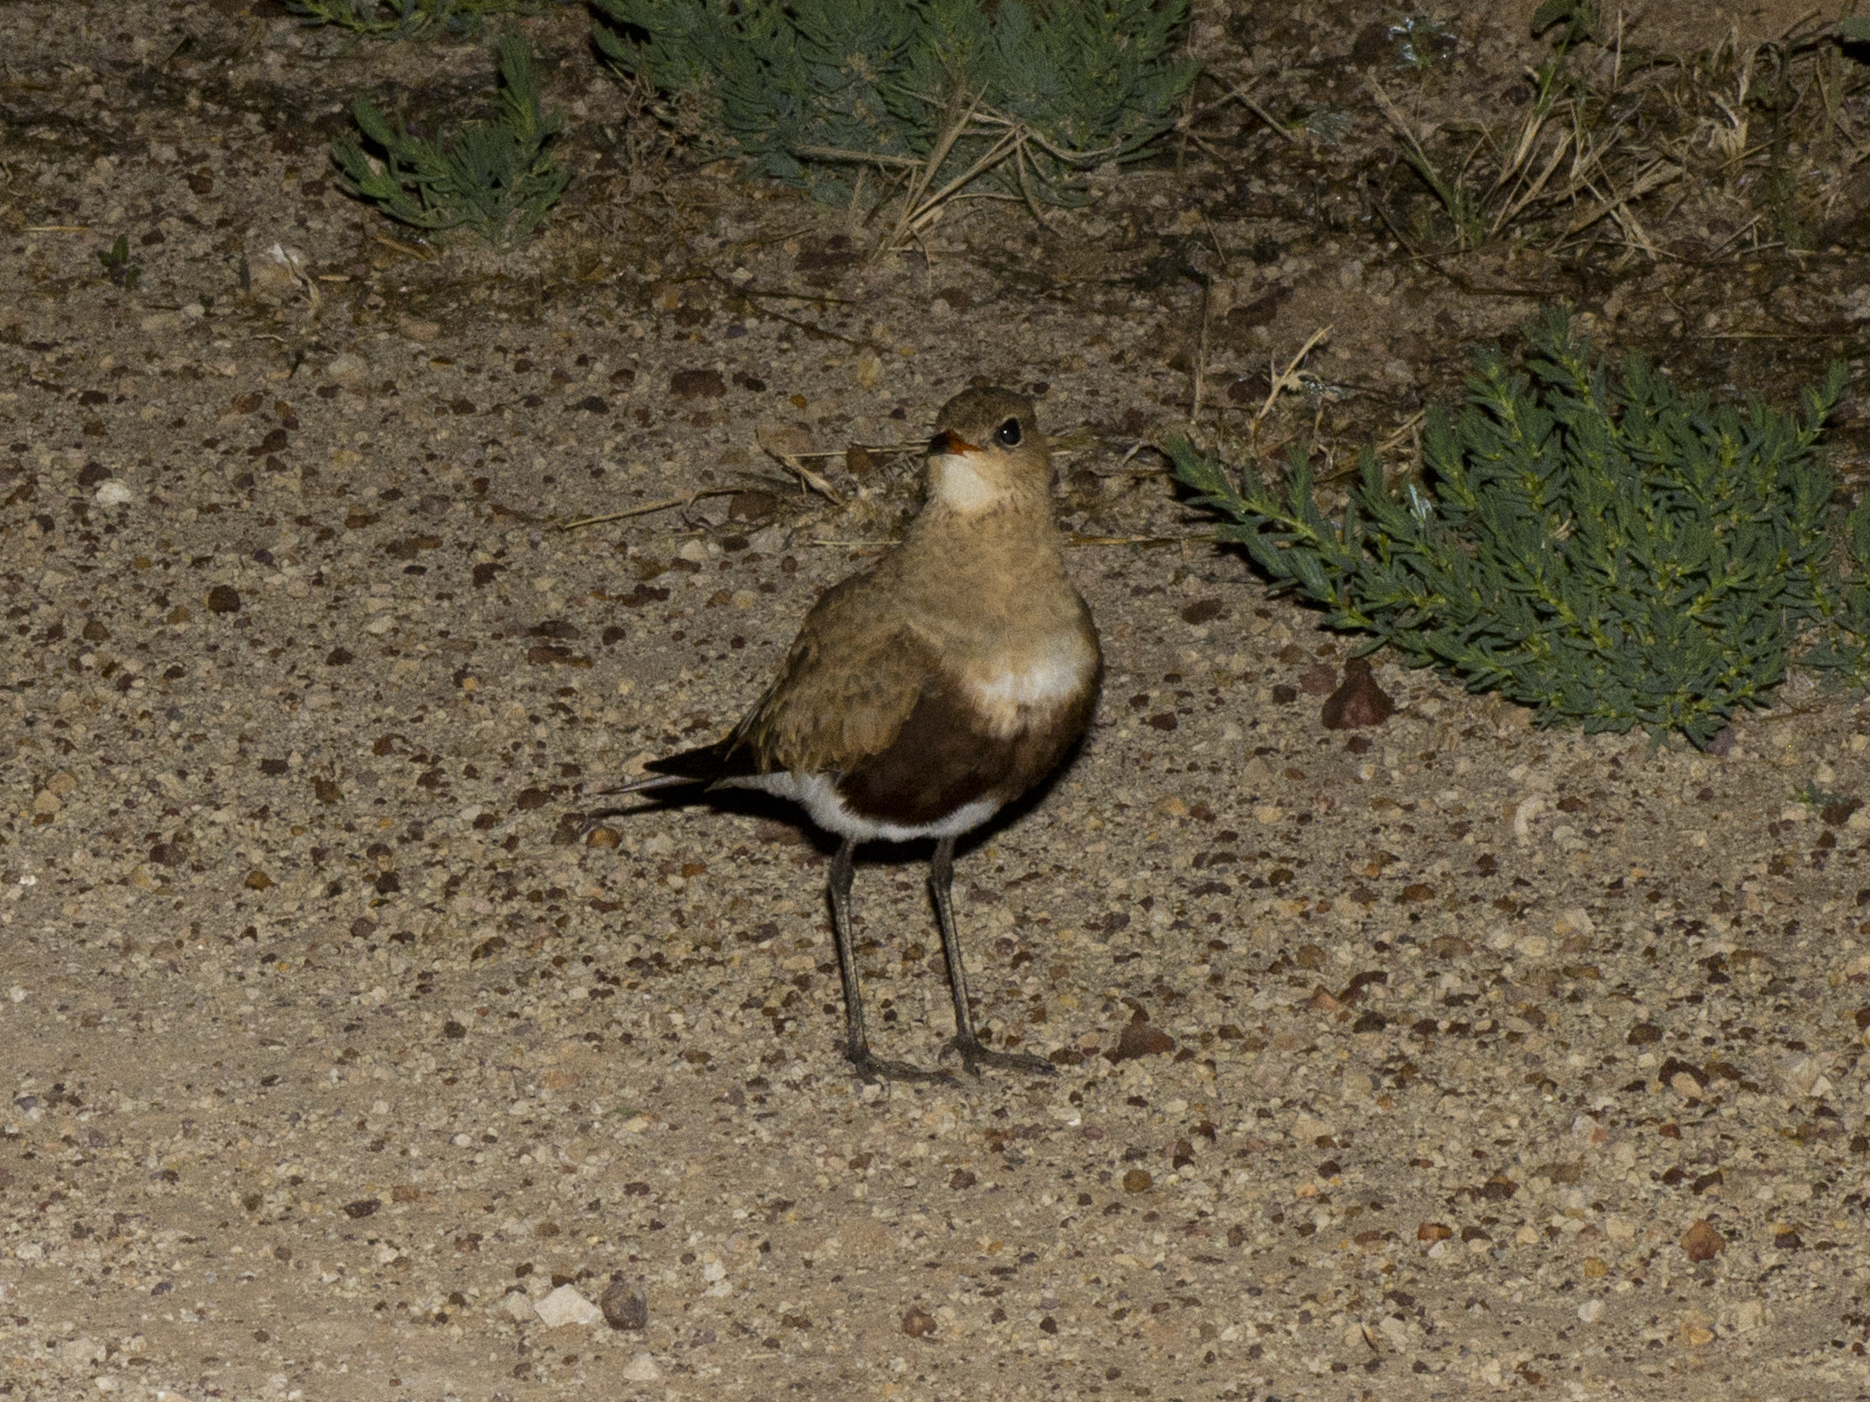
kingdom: Animalia
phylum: Chordata
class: Aves
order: Charadriiformes
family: Glareolidae
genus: Stiltia
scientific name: Stiltia isabella
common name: Australian pratincole
